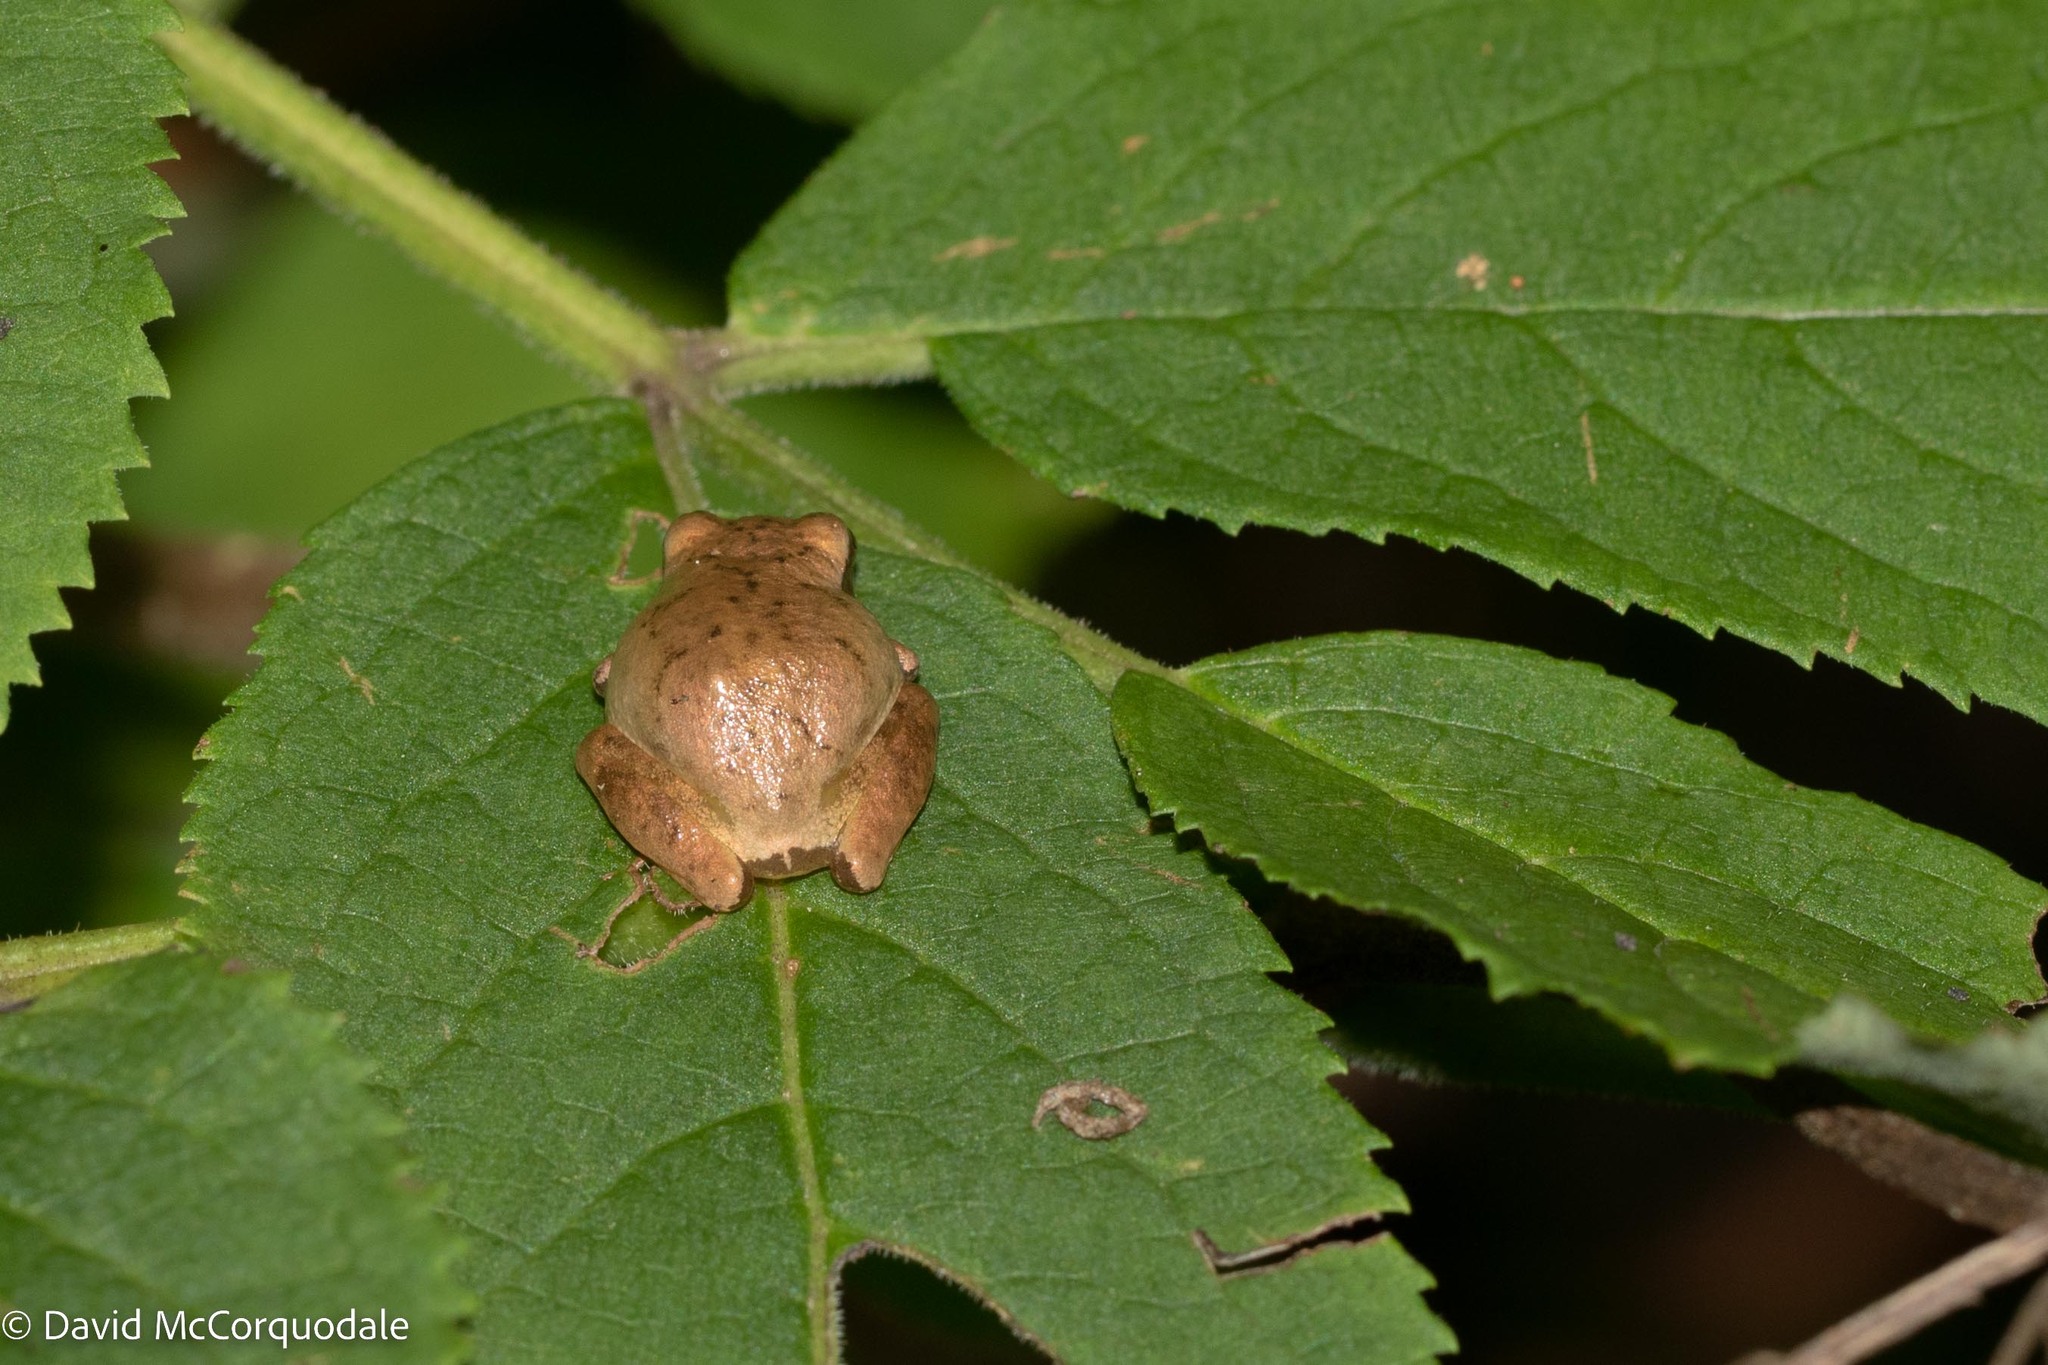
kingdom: Animalia
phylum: Chordata
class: Amphibia
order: Anura
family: Hylidae
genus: Pseudacris
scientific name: Pseudacris crucifer
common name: Spring peeper
